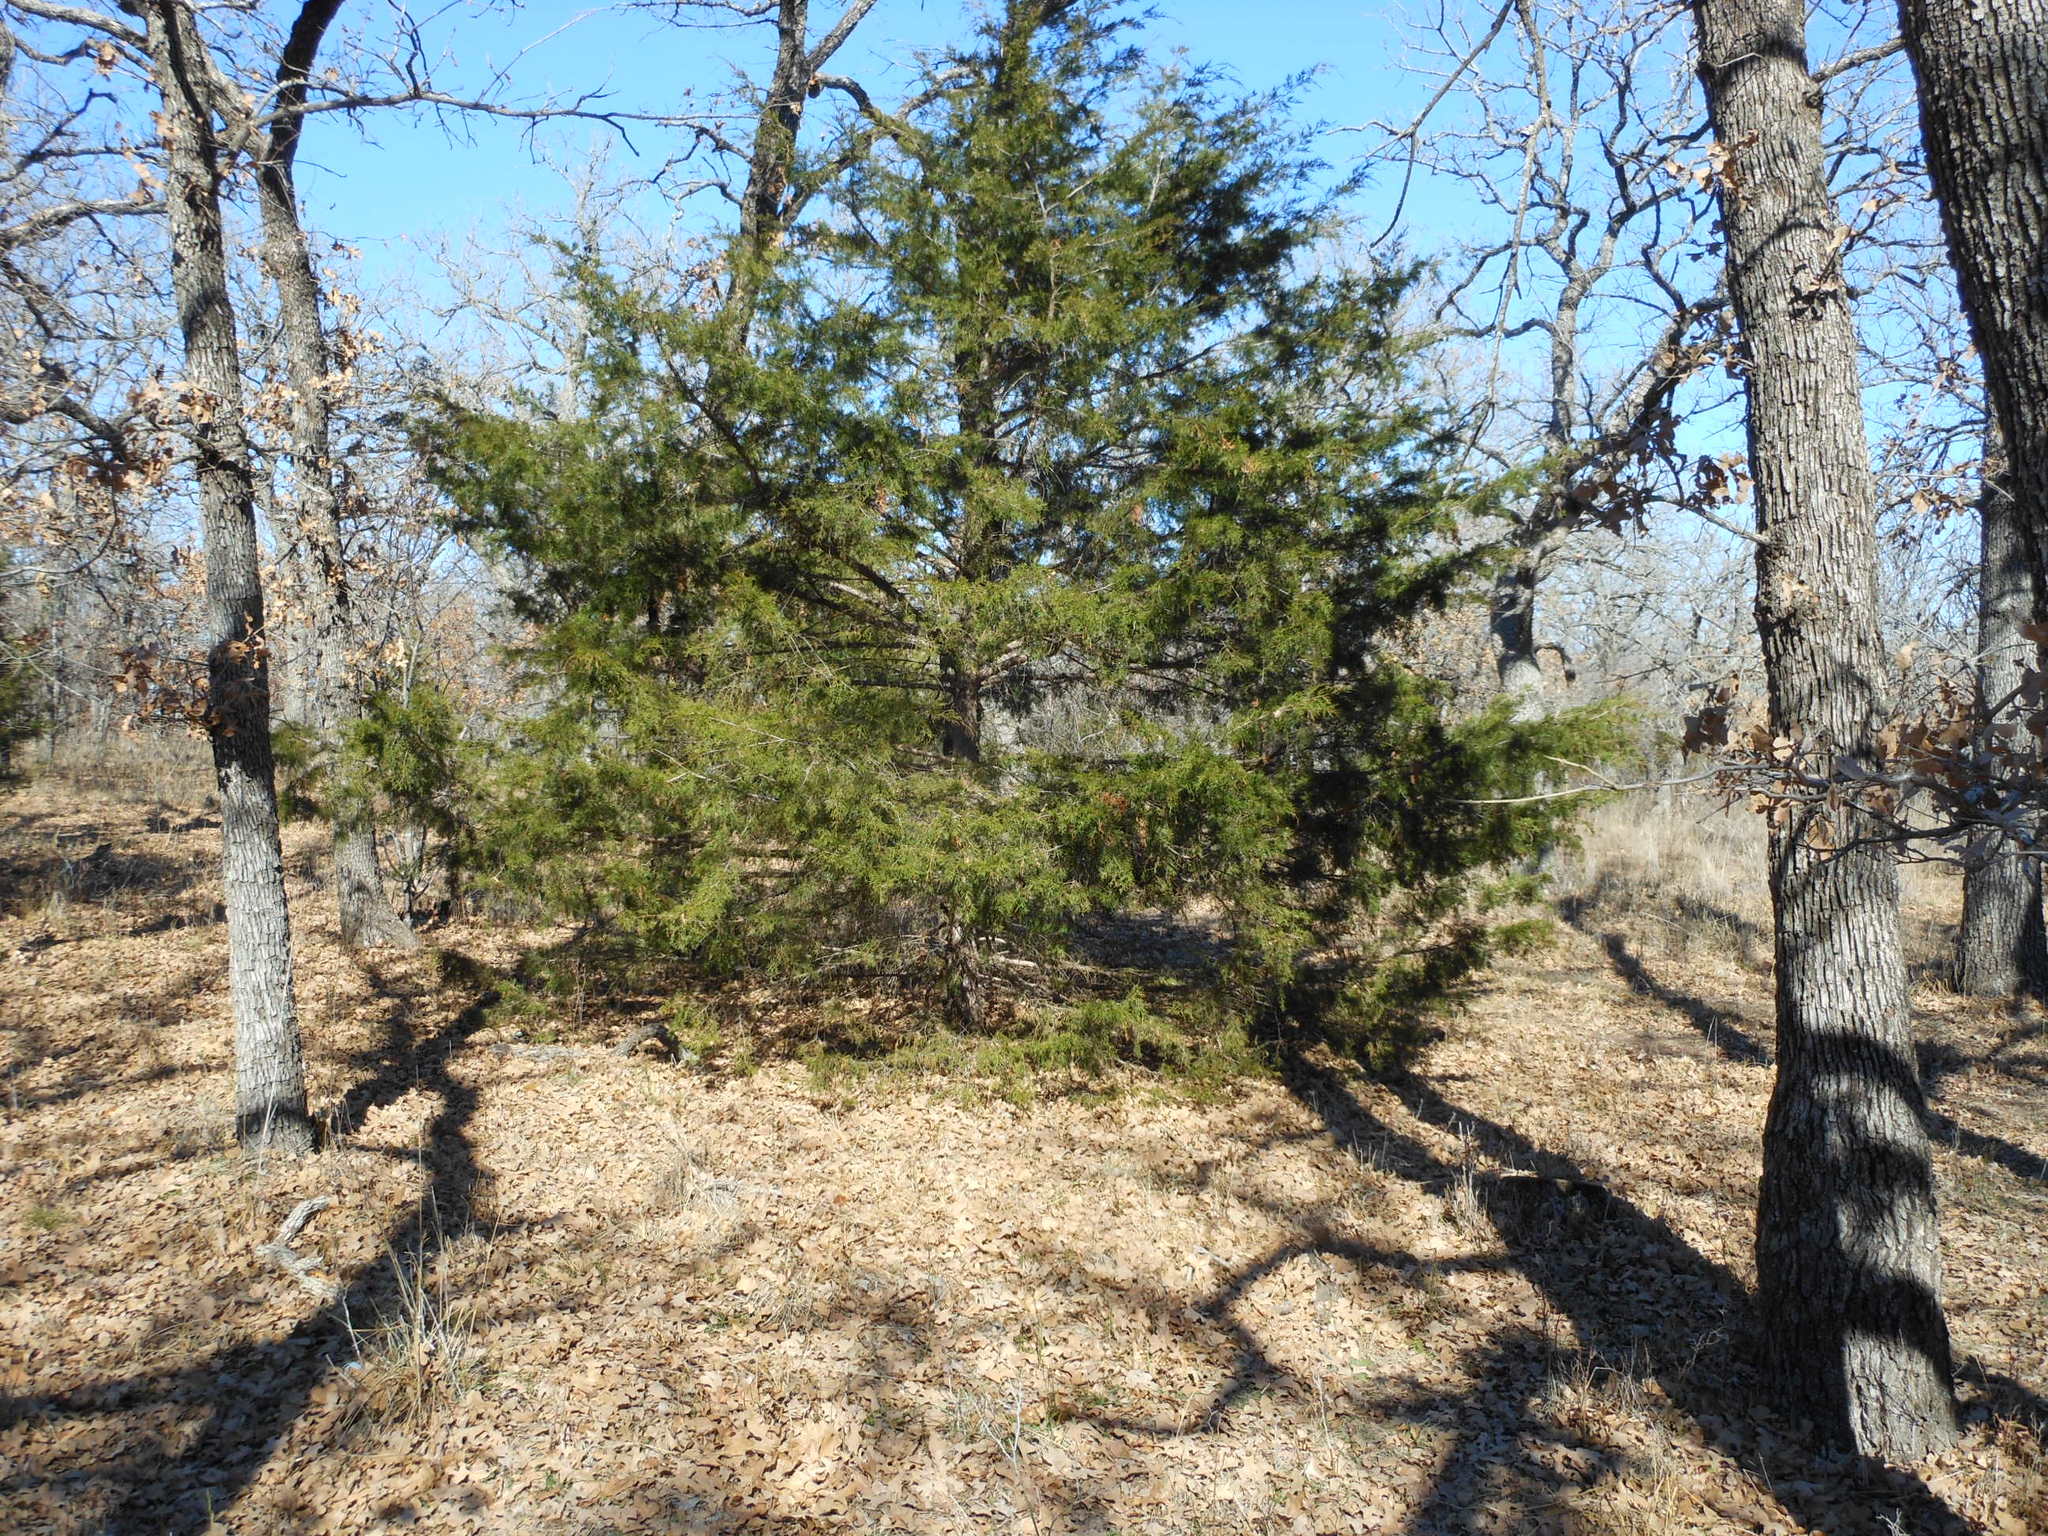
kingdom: Plantae
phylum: Tracheophyta
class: Pinopsida
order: Pinales
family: Cupressaceae
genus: Juniperus
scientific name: Juniperus virginiana
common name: Red juniper
